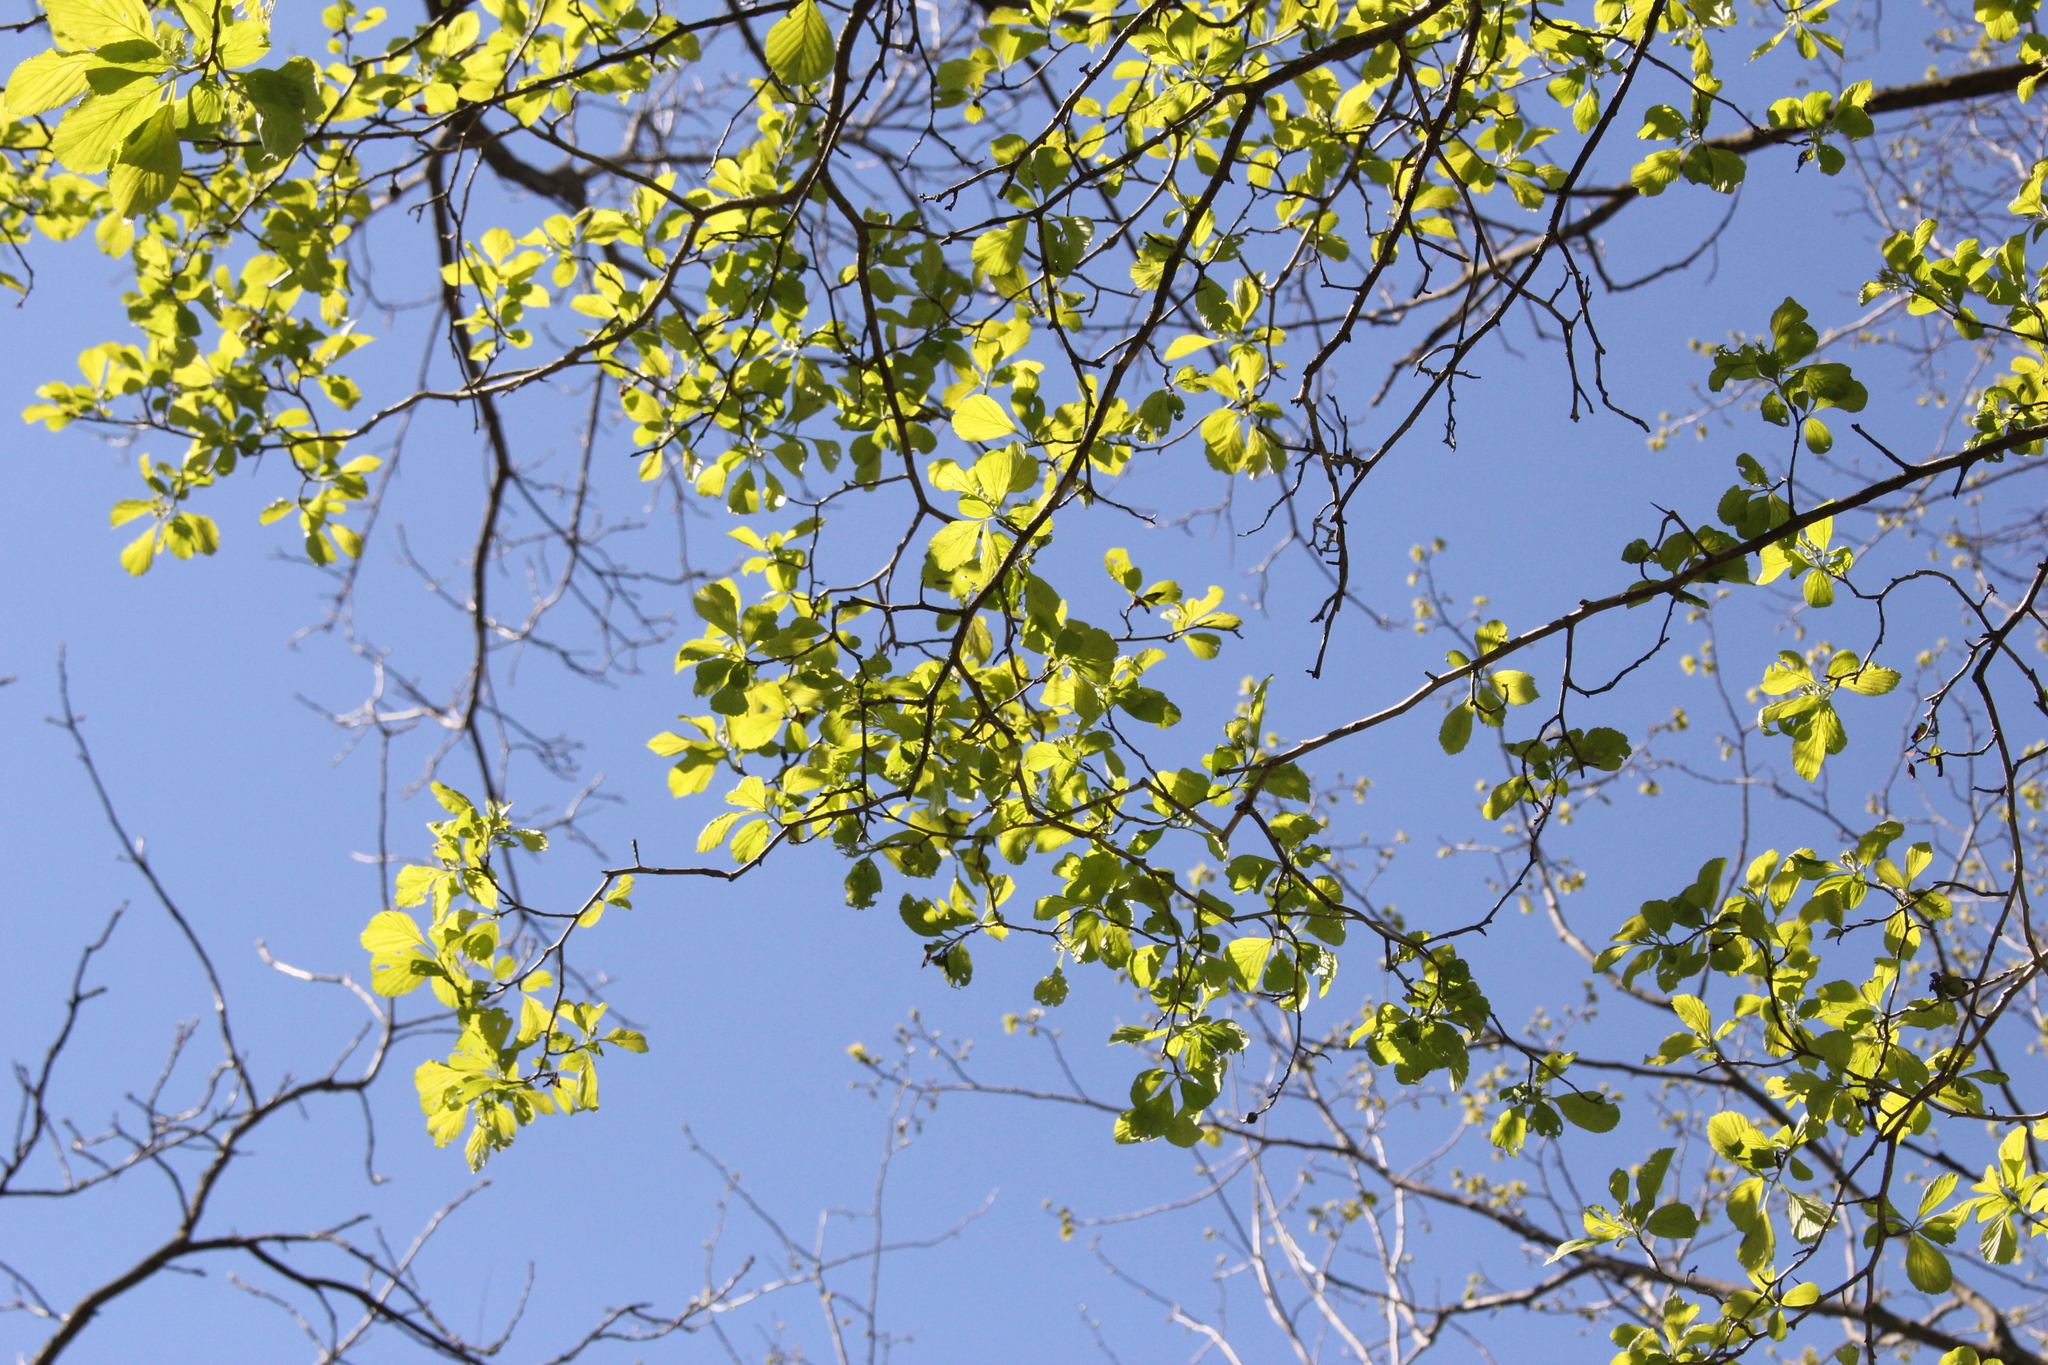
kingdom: Plantae
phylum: Tracheophyta
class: Magnoliopsida
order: Rosales
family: Rosaceae
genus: Crataegus
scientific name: Crataegus punctata
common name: Dotted hawthorn
